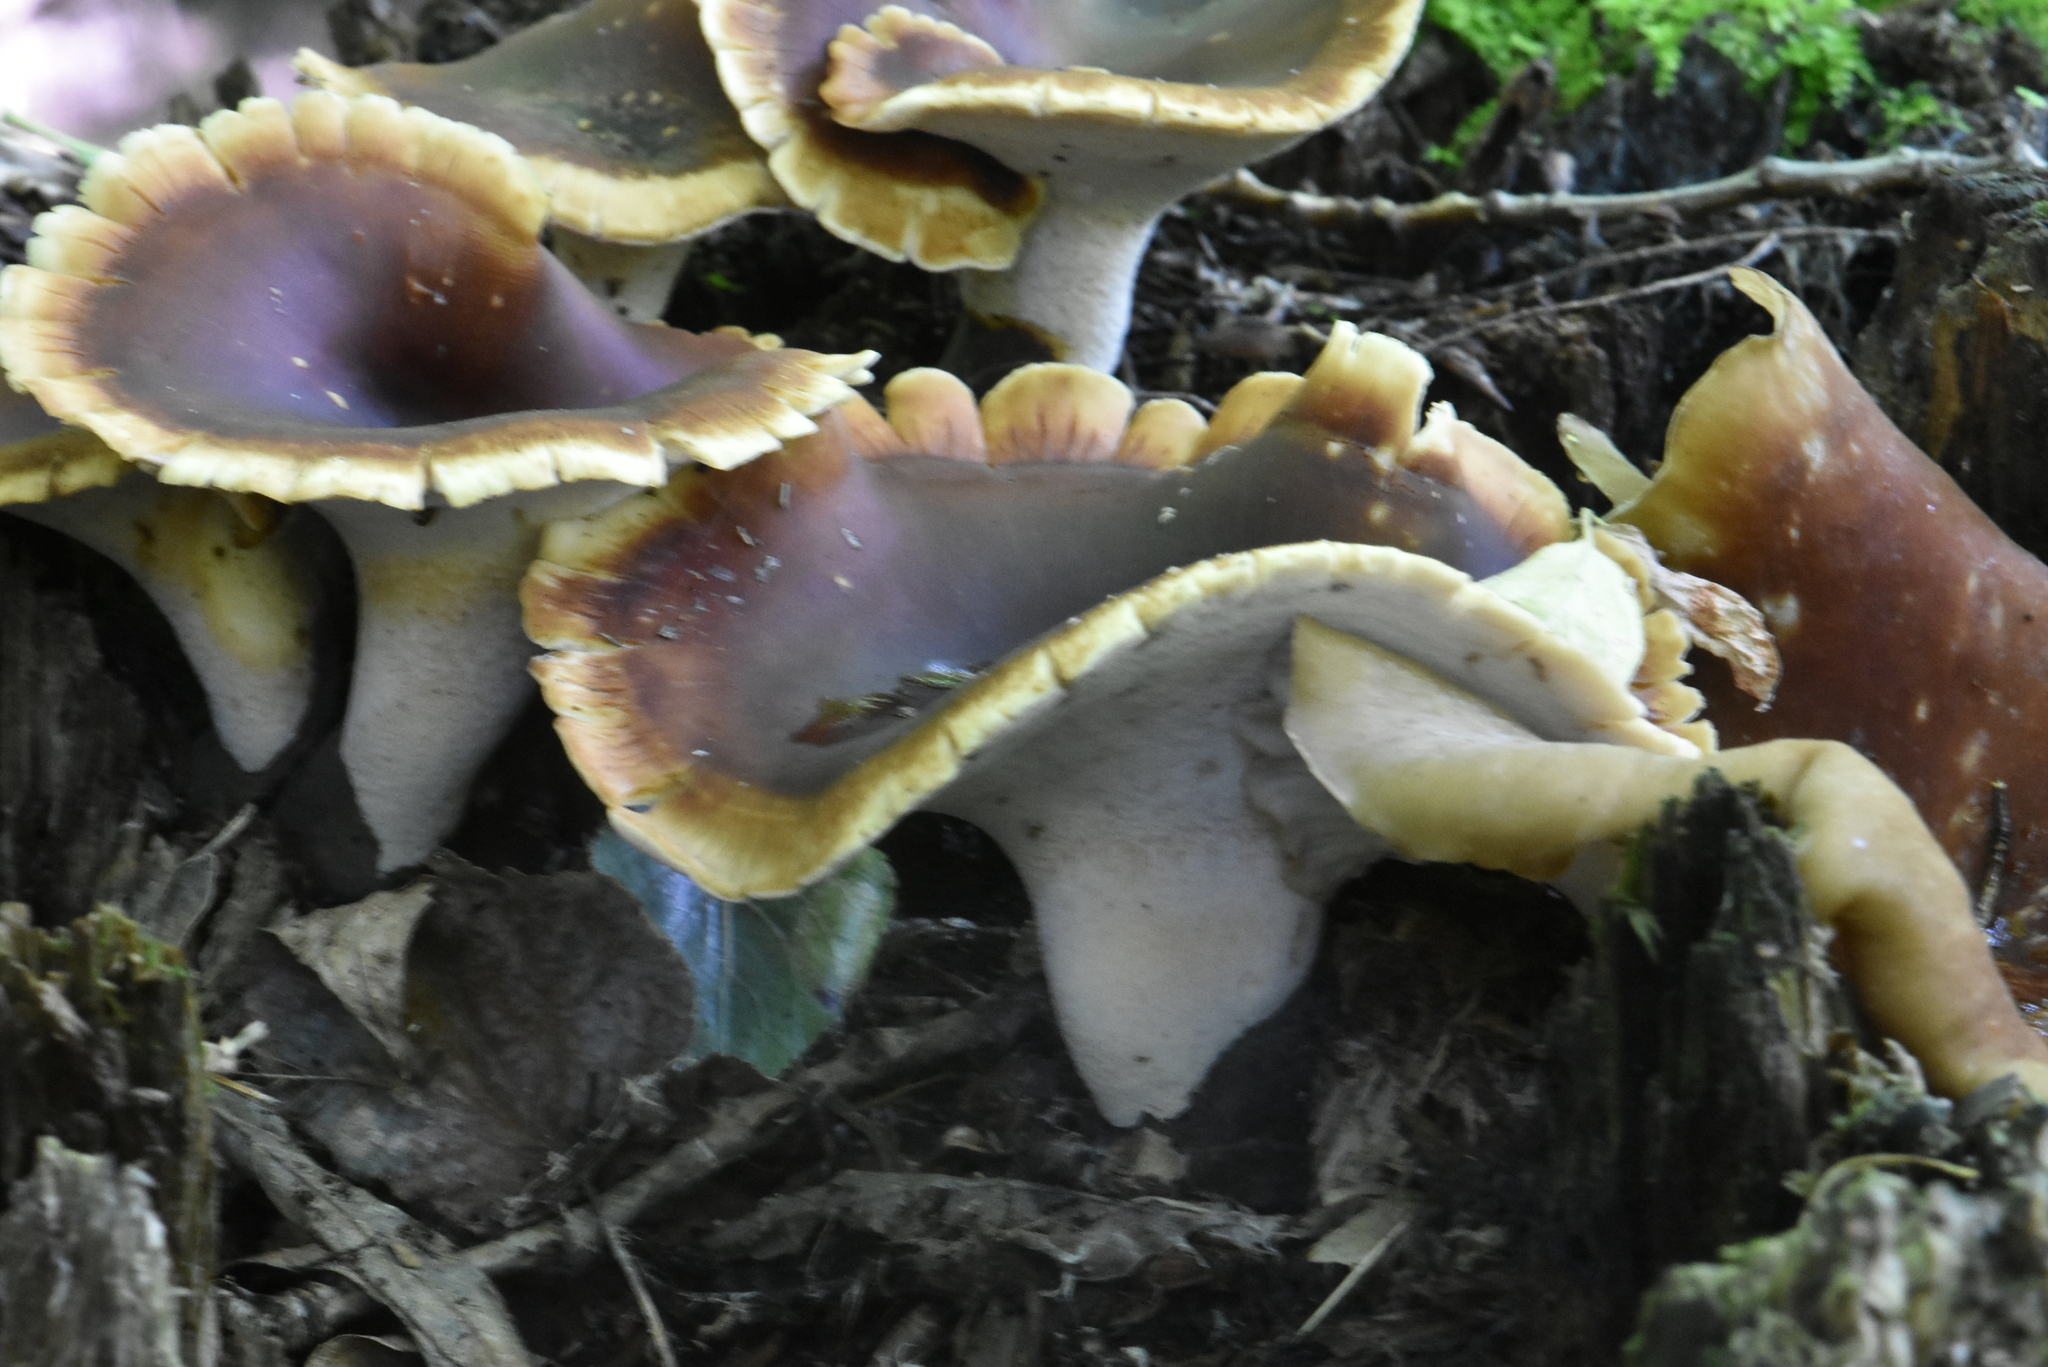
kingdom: Fungi
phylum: Basidiomycota
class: Agaricomycetes
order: Polyporales
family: Polyporaceae
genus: Picipes
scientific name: Picipes badius
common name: Bay polypore
